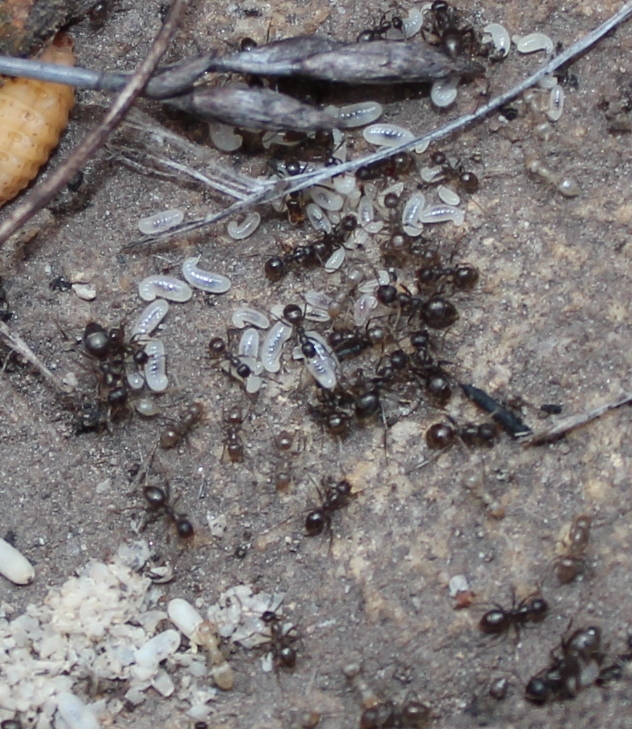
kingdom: Animalia
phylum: Arthropoda
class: Insecta
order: Hymenoptera
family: Formicidae
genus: Anoplolepis
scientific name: Anoplolepis steingroeveri
